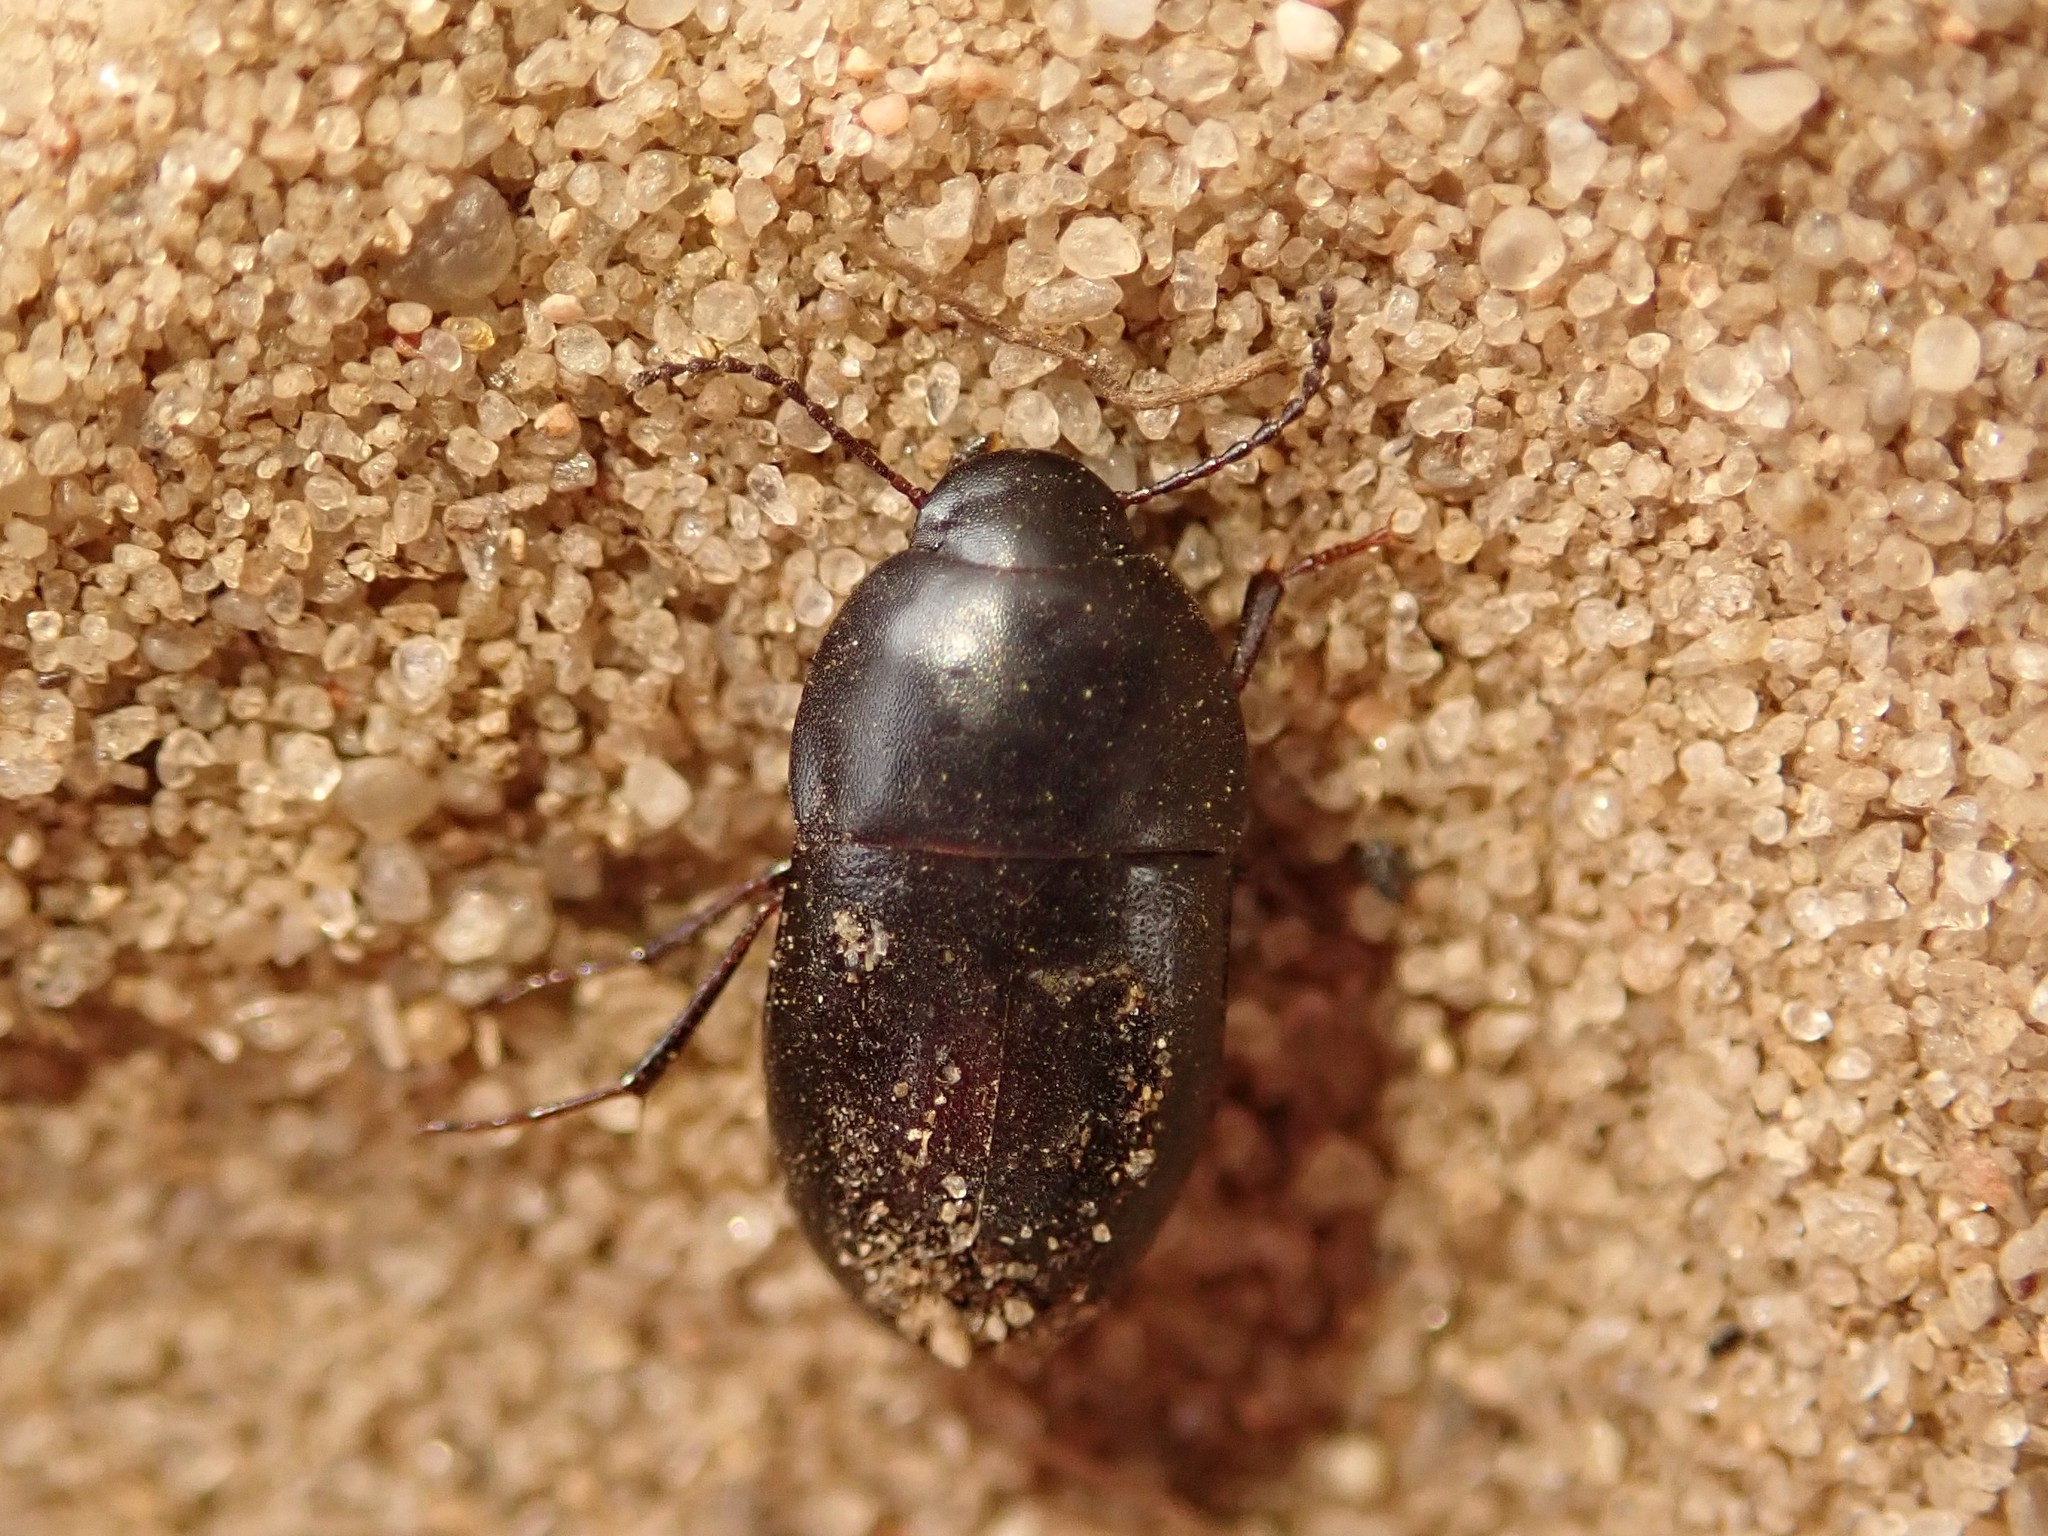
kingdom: Animalia
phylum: Arthropoda
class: Insecta
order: Coleoptera
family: Tenebrionidae
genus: Crypticus
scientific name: Crypticus quisquilius
